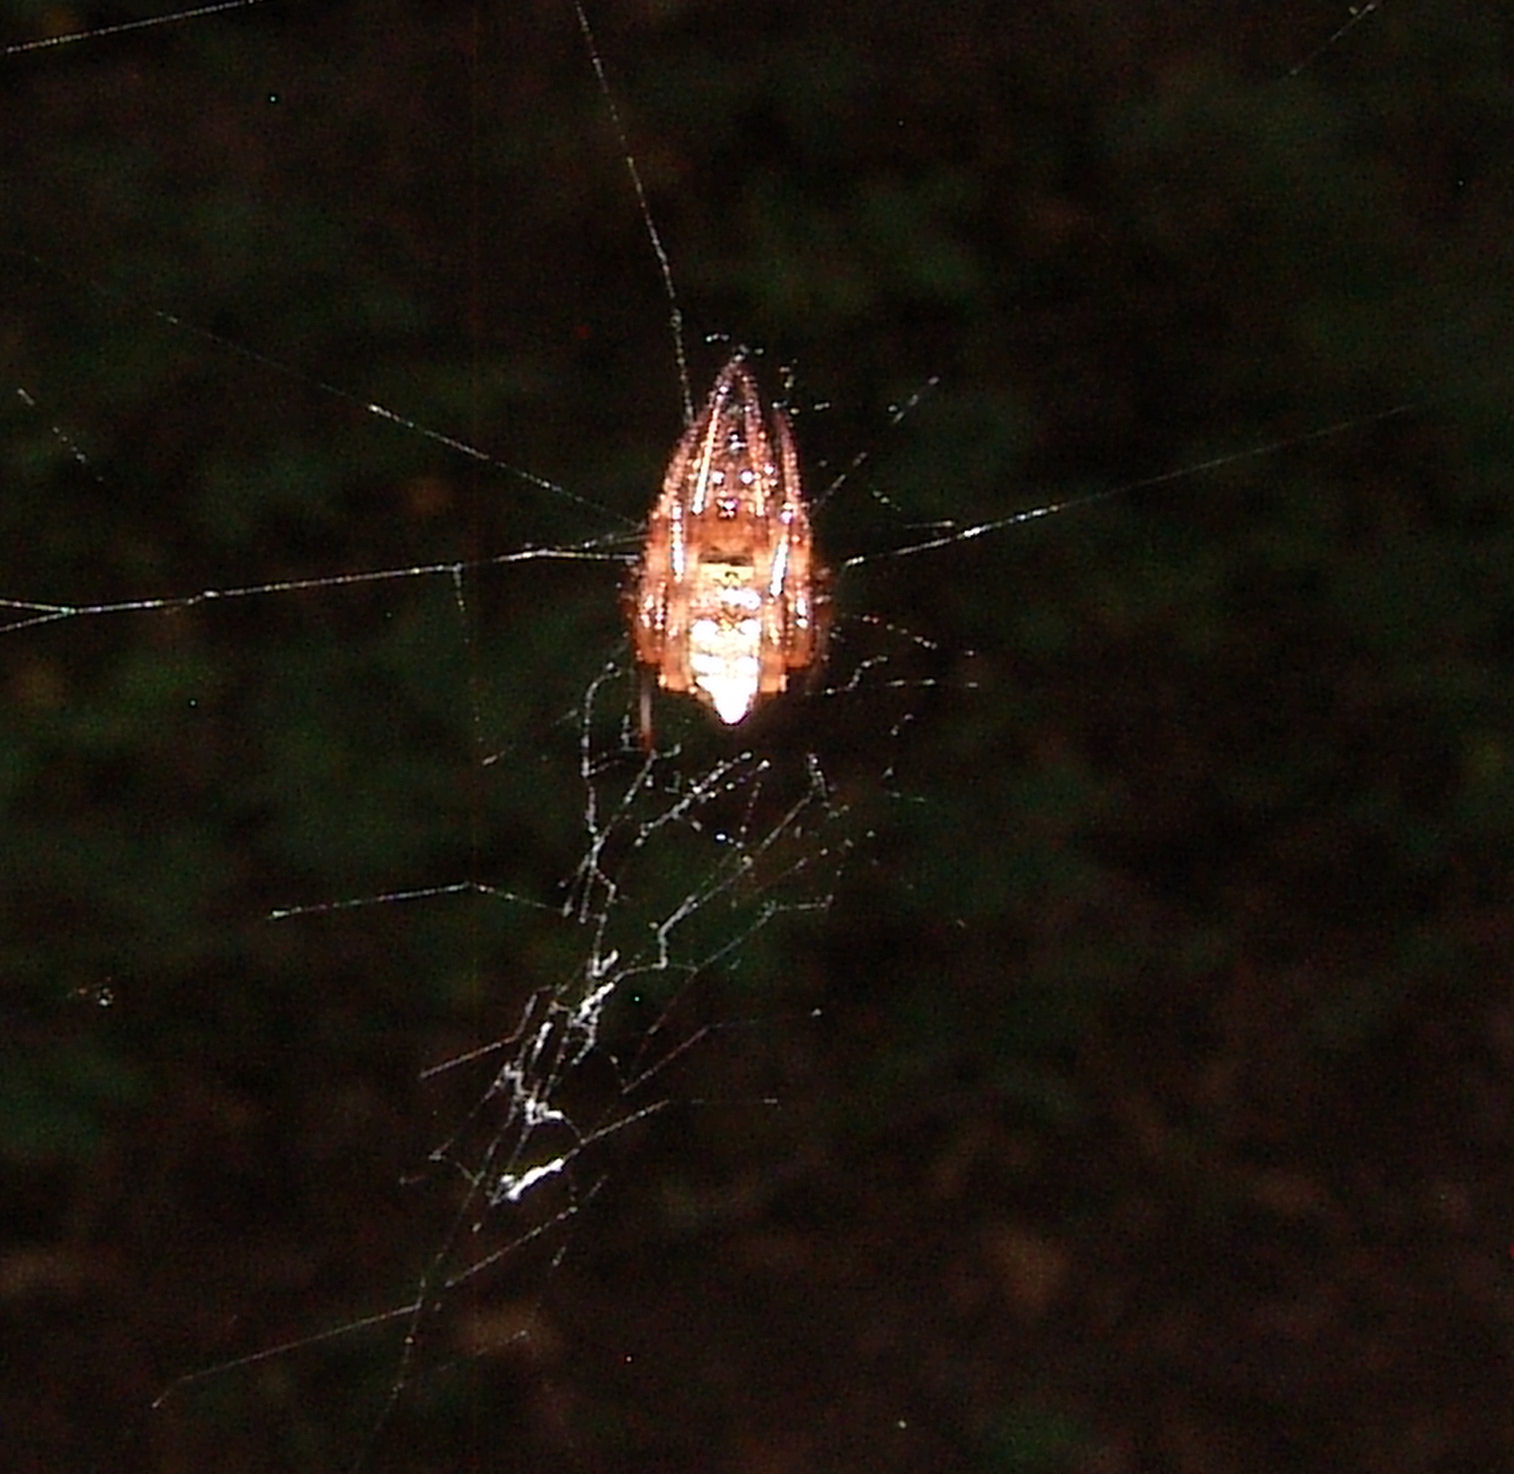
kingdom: Animalia
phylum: Arthropoda
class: Arachnida
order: Araneae
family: Araneidae
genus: Verrucosa
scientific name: Verrucosa arenata
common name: Orb weavers
